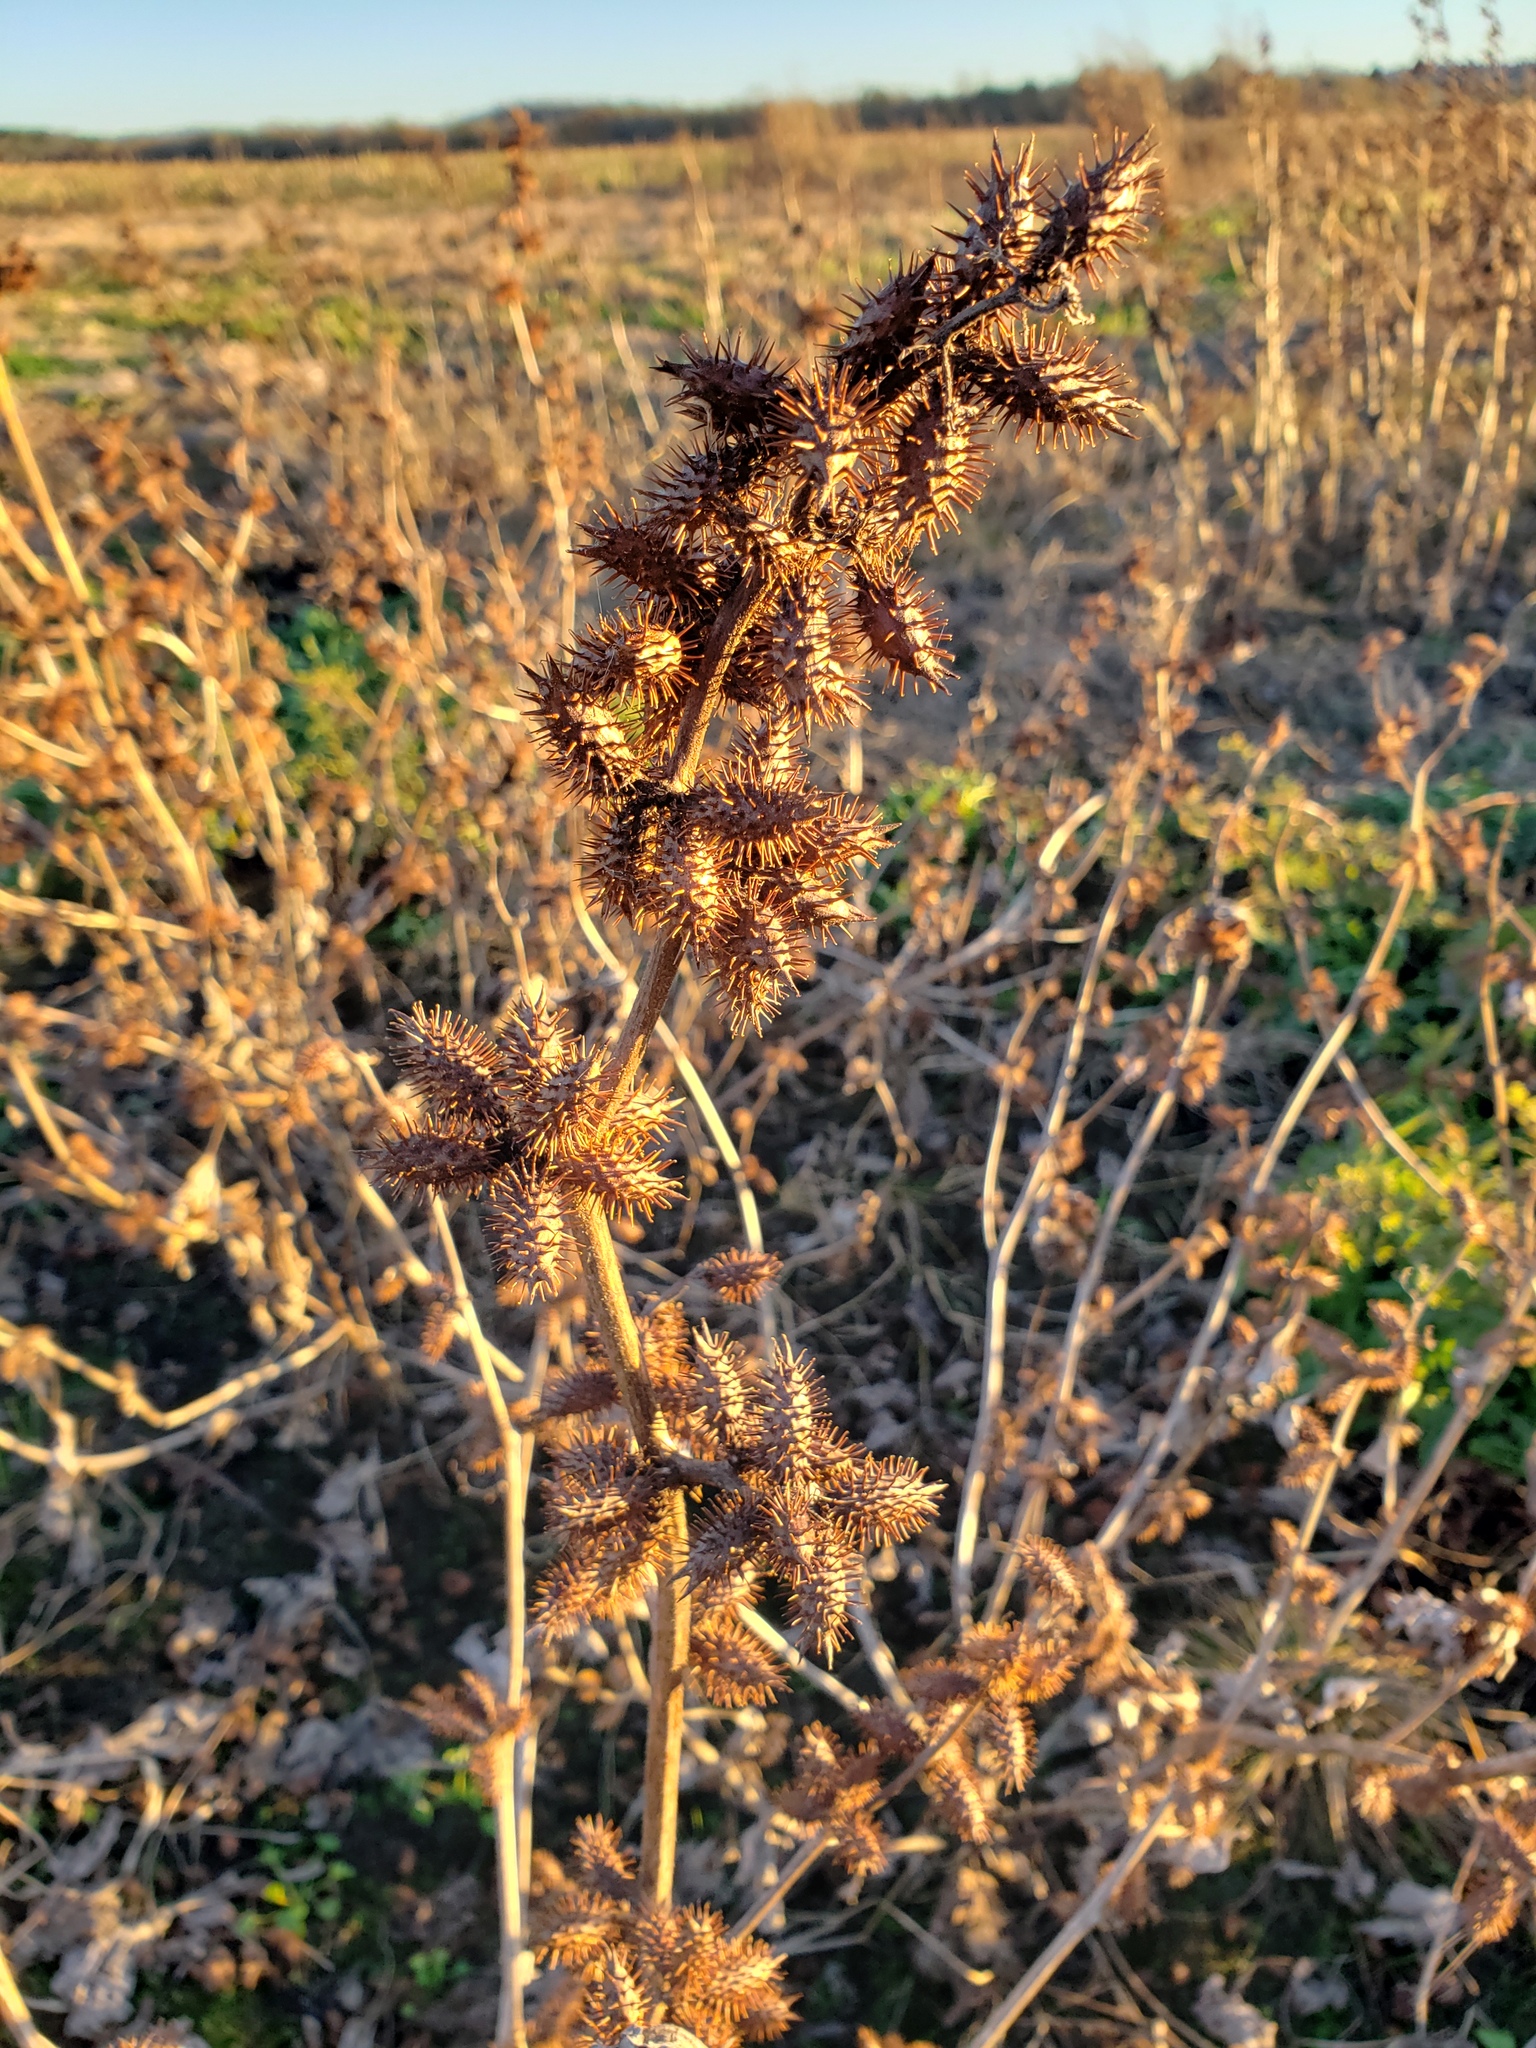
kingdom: Plantae
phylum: Tracheophyta
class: Magnoliopsida
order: Asterales
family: Asteraceae
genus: Xanthium
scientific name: Xanthium strumarium
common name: Rough cocklebur
